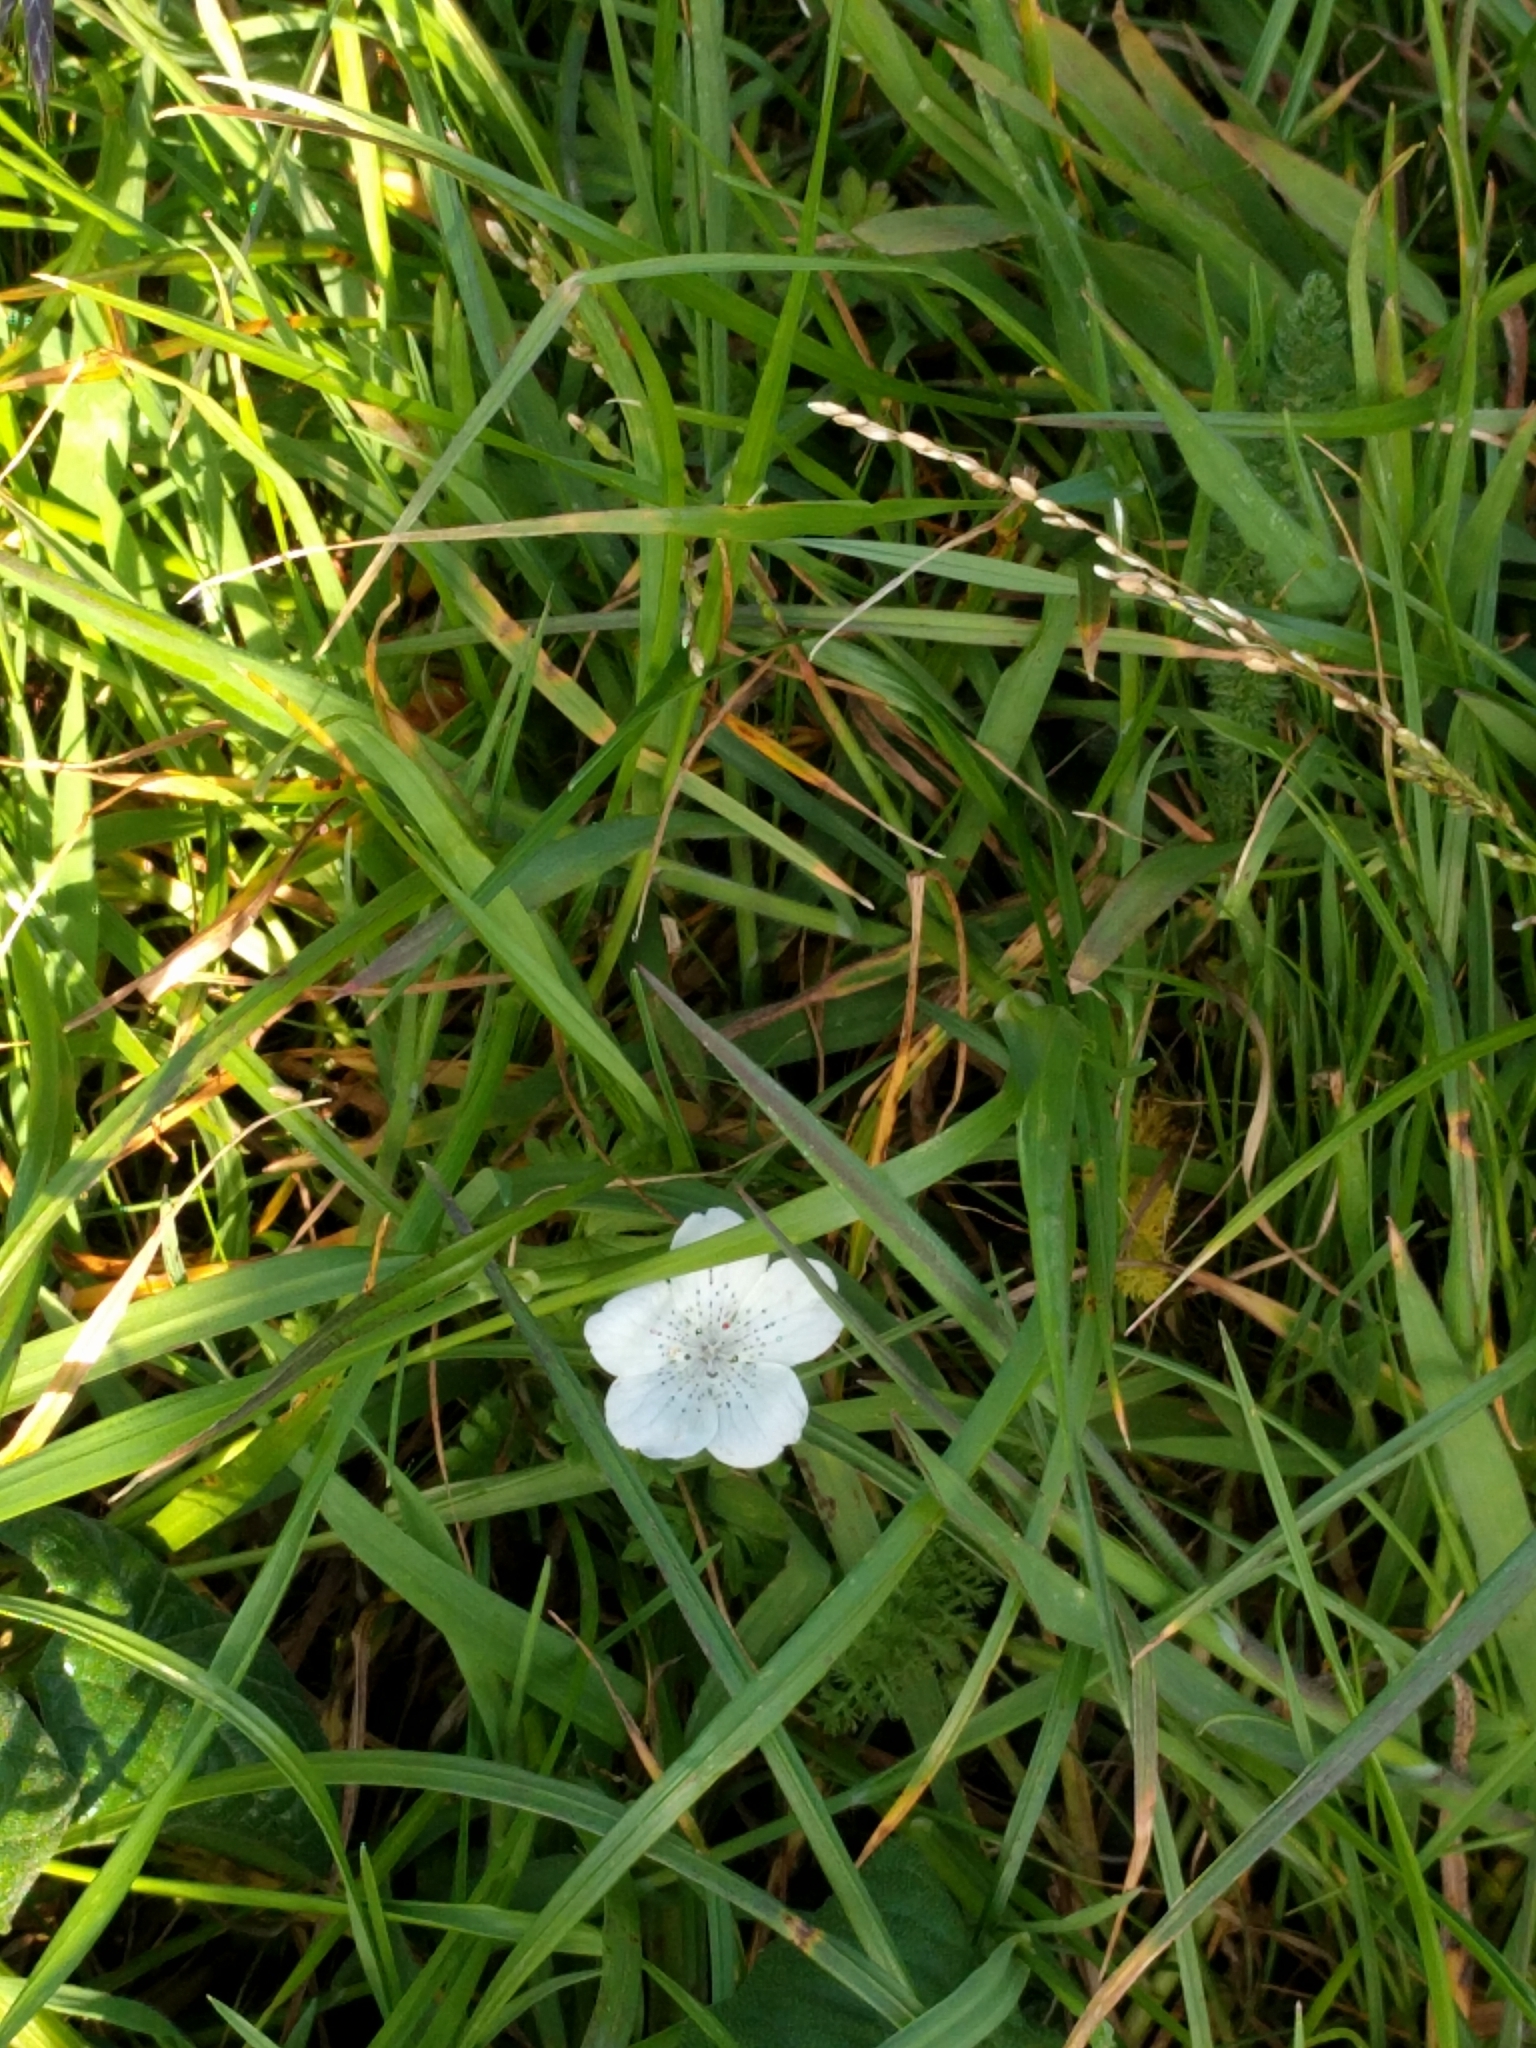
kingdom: Plantae
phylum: Tracheophyta
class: Magnoliopsida
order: Boraginales
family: Hydrophyllaceae
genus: Nemophila
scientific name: Nemophila menziesii
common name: Baby's-blue-eyes
